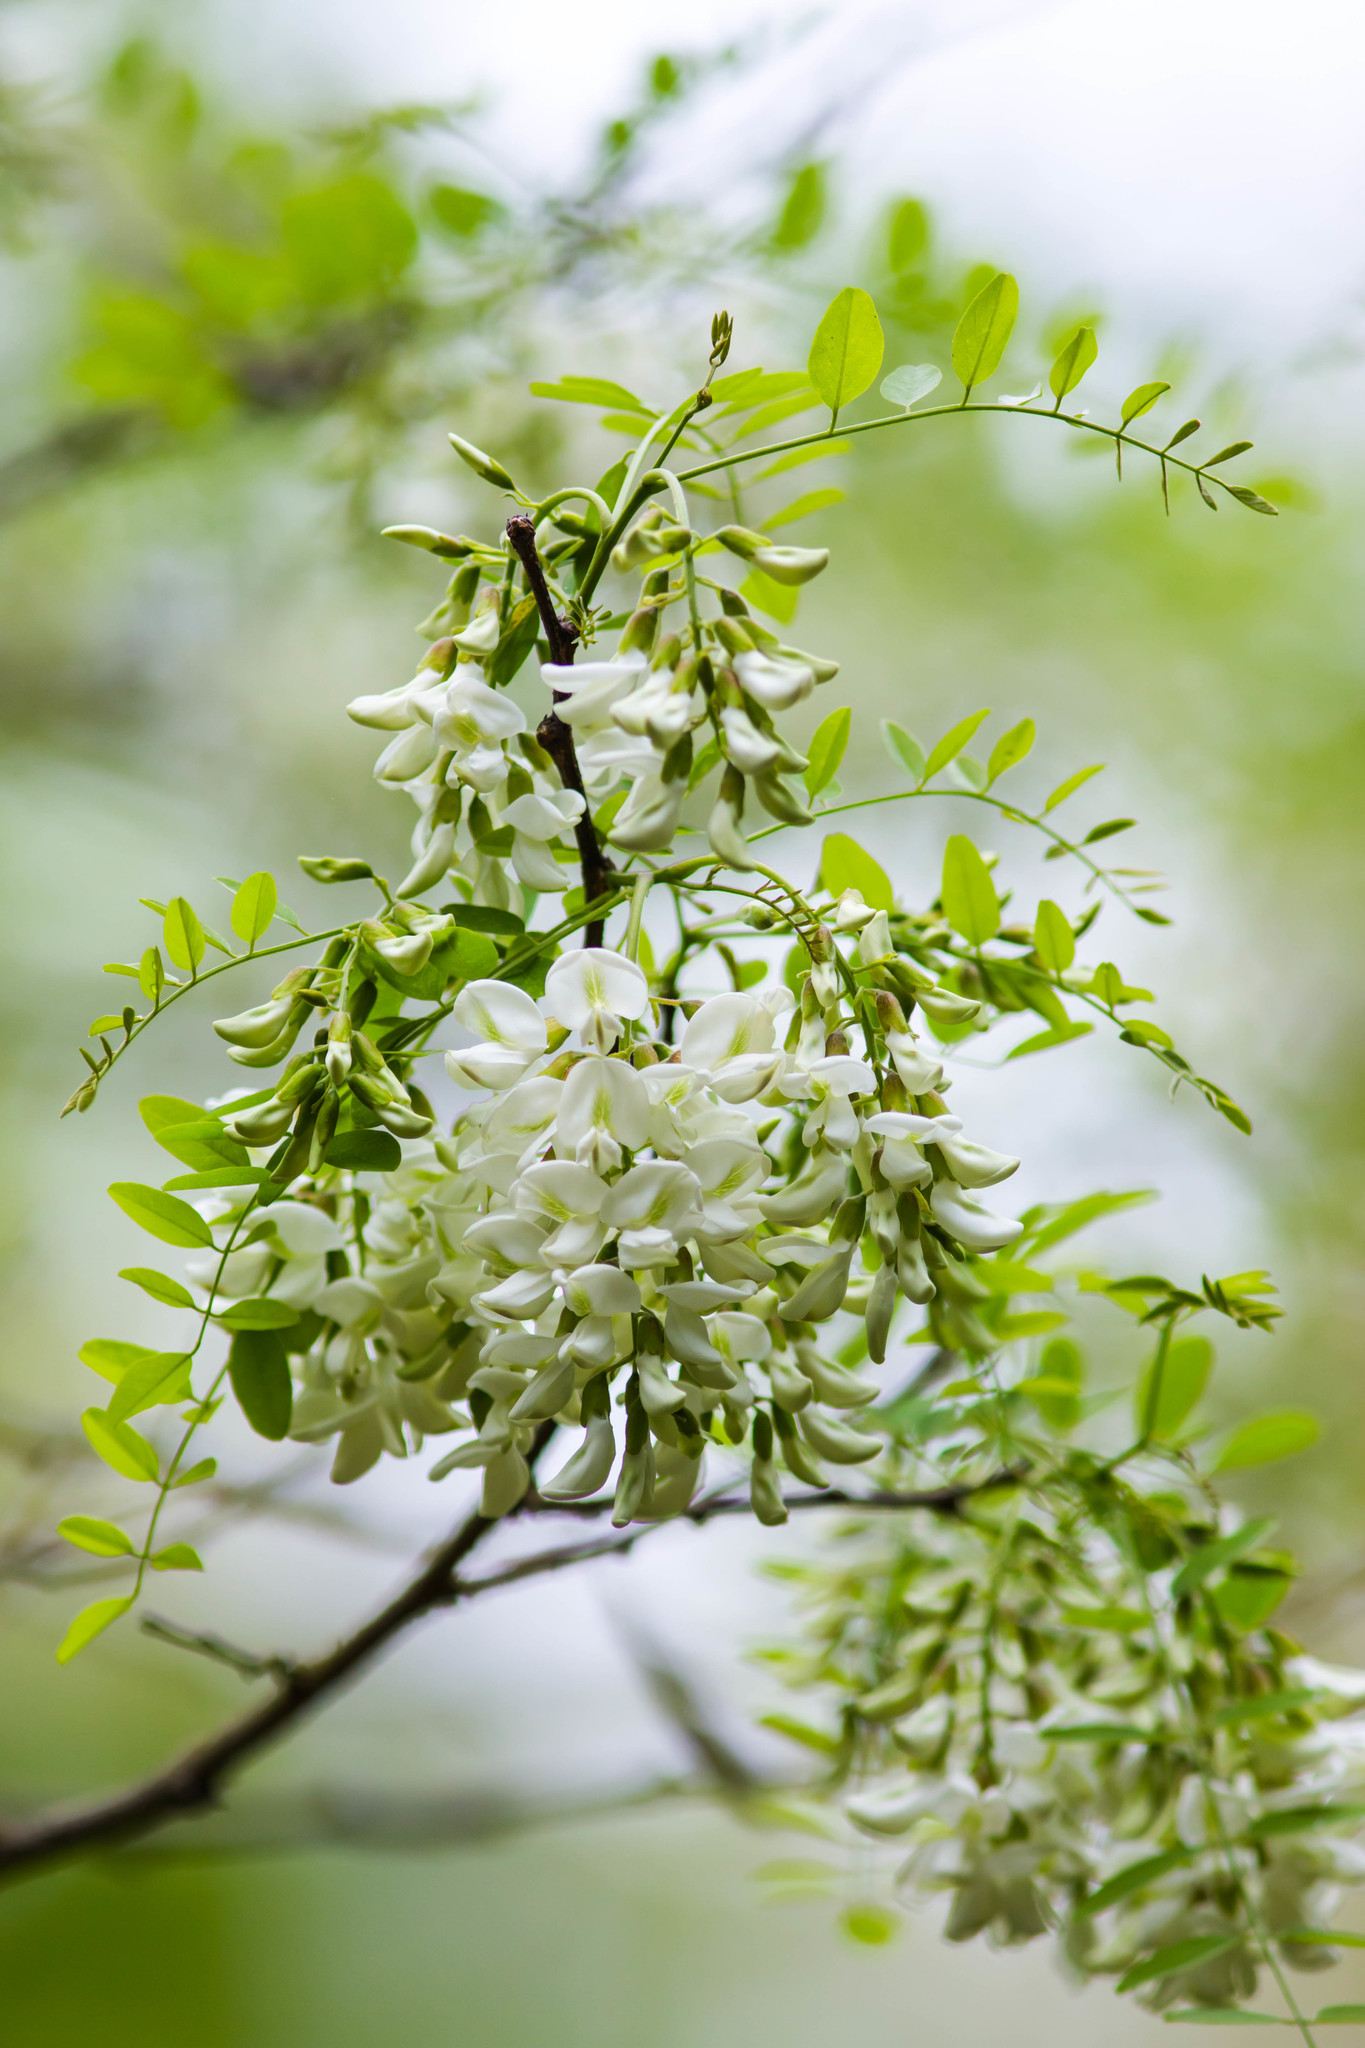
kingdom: Plantae
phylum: Tracheophyta
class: Magnoliopsida
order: Fabales
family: Fabaceae
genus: Robinia
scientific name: Robinia pseudoacacia
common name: Black locust
